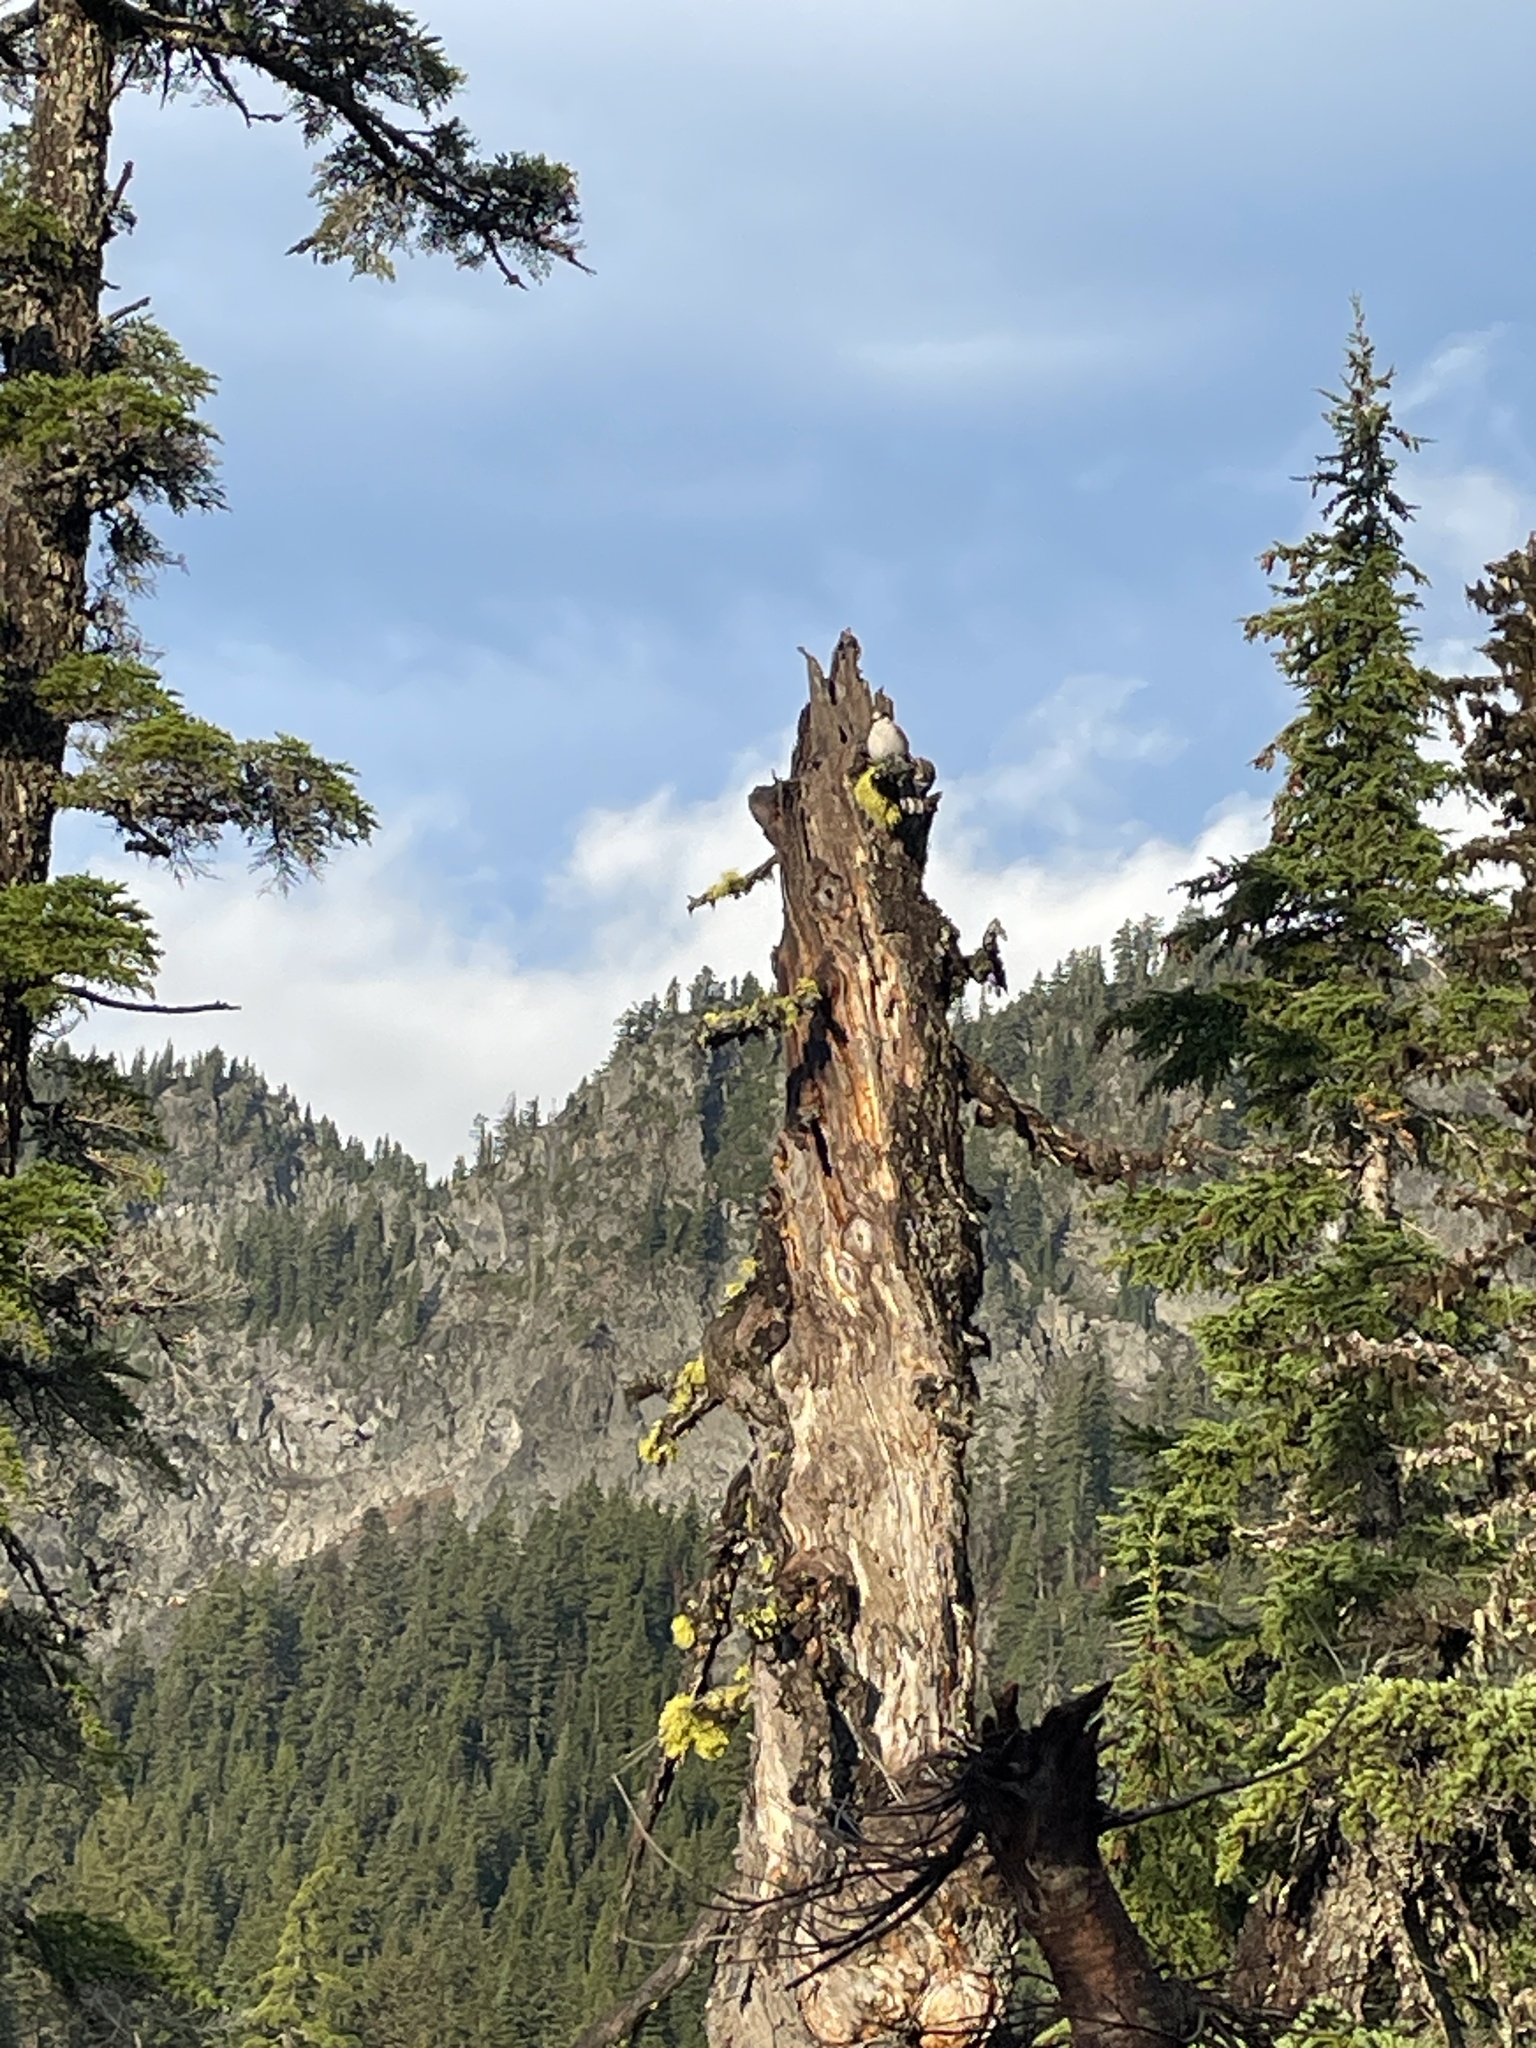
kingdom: Animalia
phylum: Chordata
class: Aves
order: Passeriformes
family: Corvidae
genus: Perisoreus
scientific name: Perisoreus canadensis
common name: Gray jay
